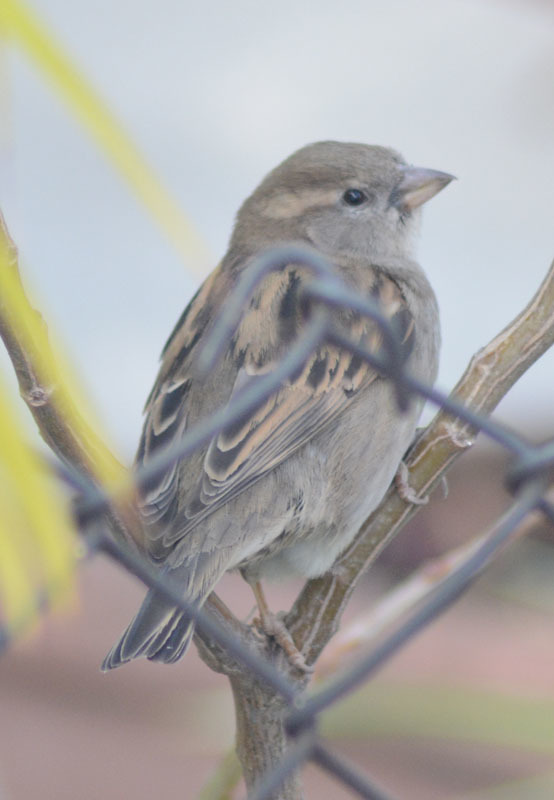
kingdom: Animalia
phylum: Chordata
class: Aves
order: Passeriformes
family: Passeridae
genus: Passer
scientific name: Passer domesticus
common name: House sparrow
